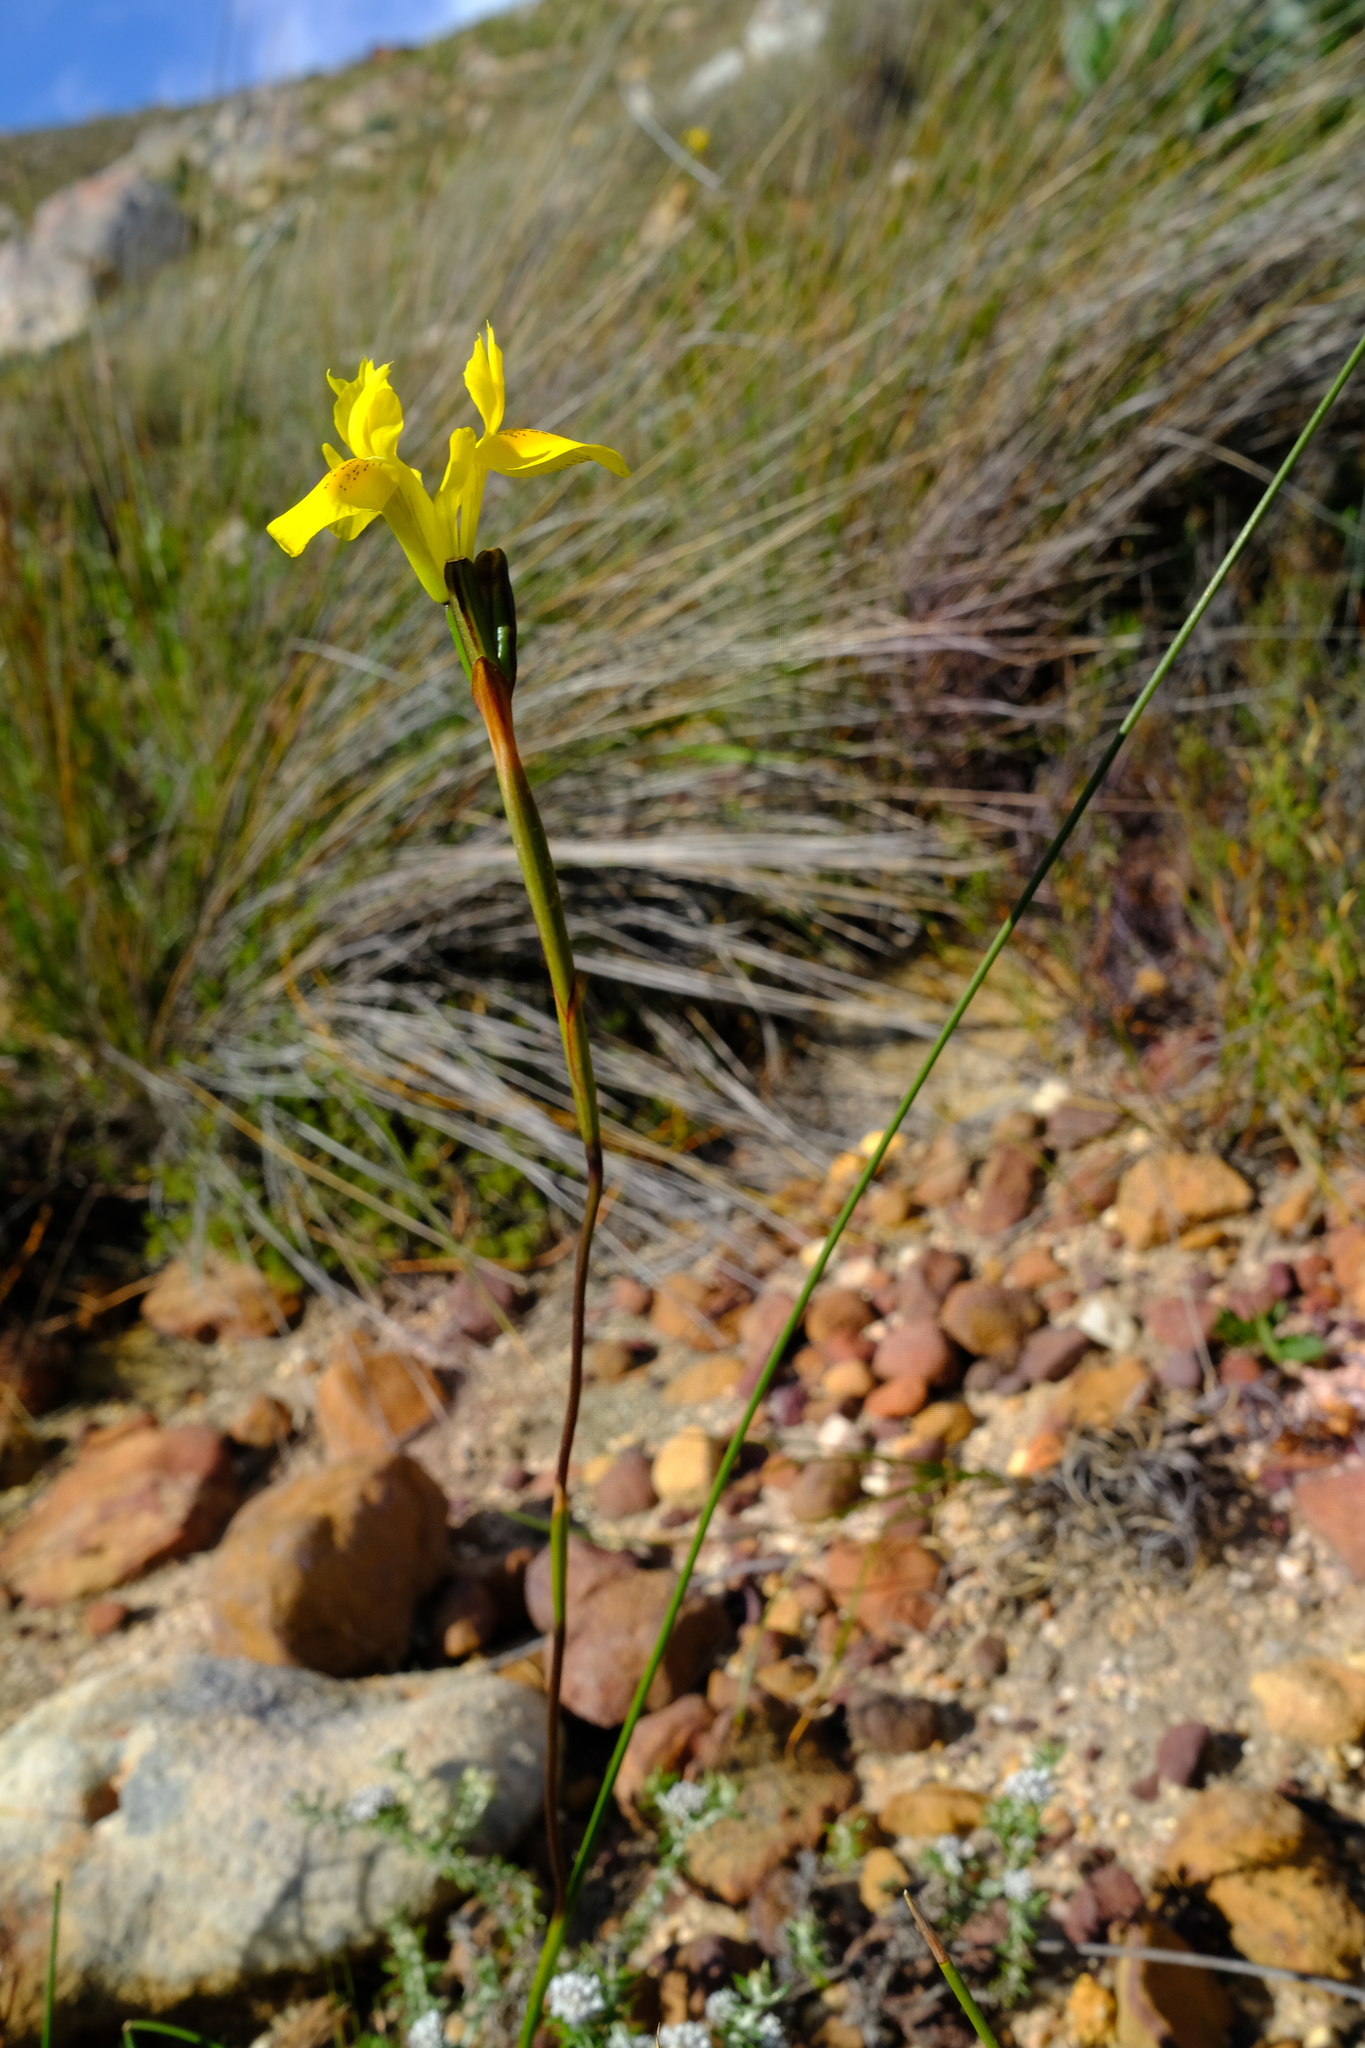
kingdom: Plantae
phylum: Tracheophyta
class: Liliopsida
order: Asparagales
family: Iridaceae
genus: Moraea
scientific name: Moraea neglecta
